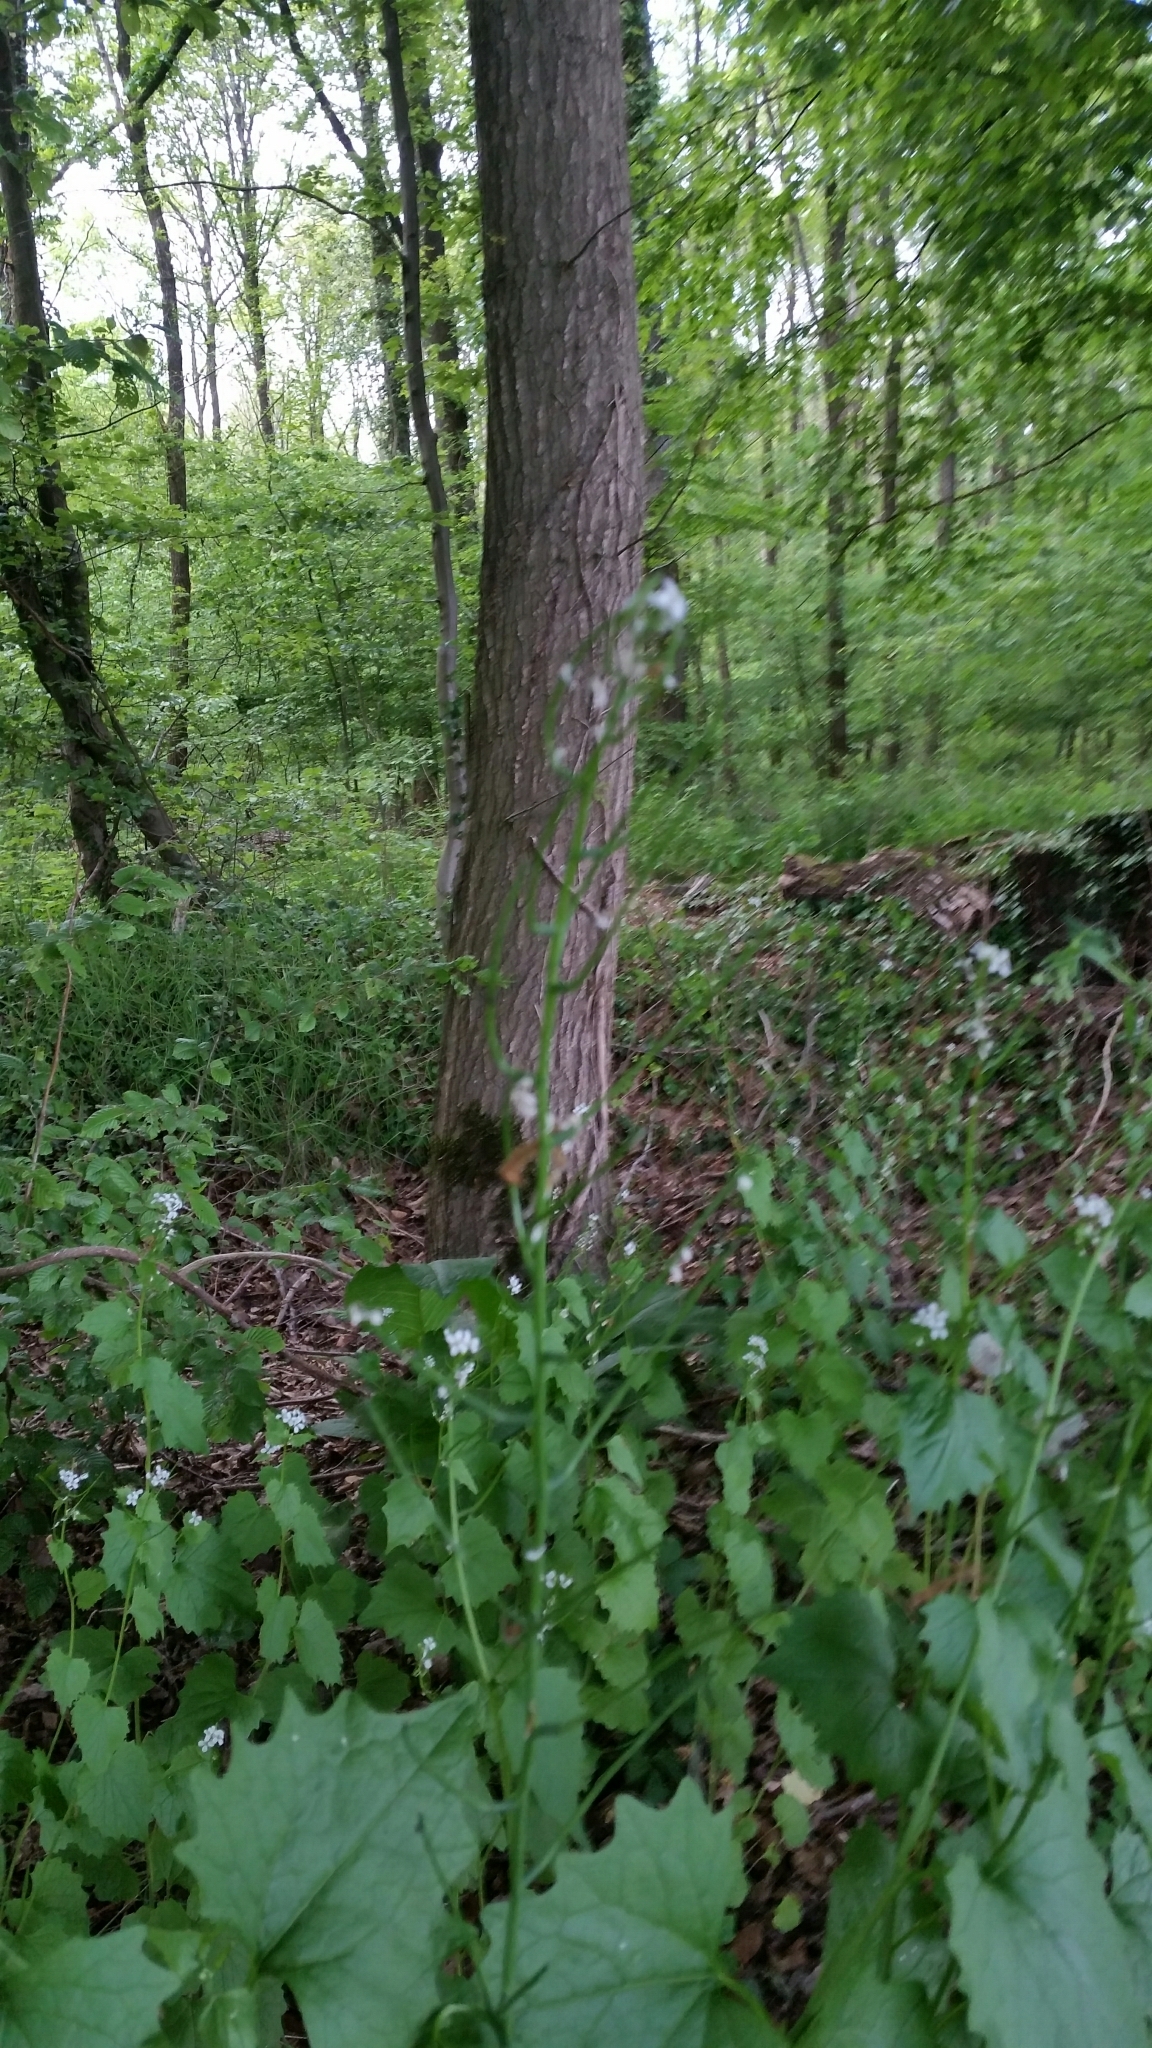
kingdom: Plantae
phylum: Tracheophyta
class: Magnoliopsida
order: Brassicales
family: Brassicaceae
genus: Alliaria
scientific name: Alliaria petiolata
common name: Garlic mustard
